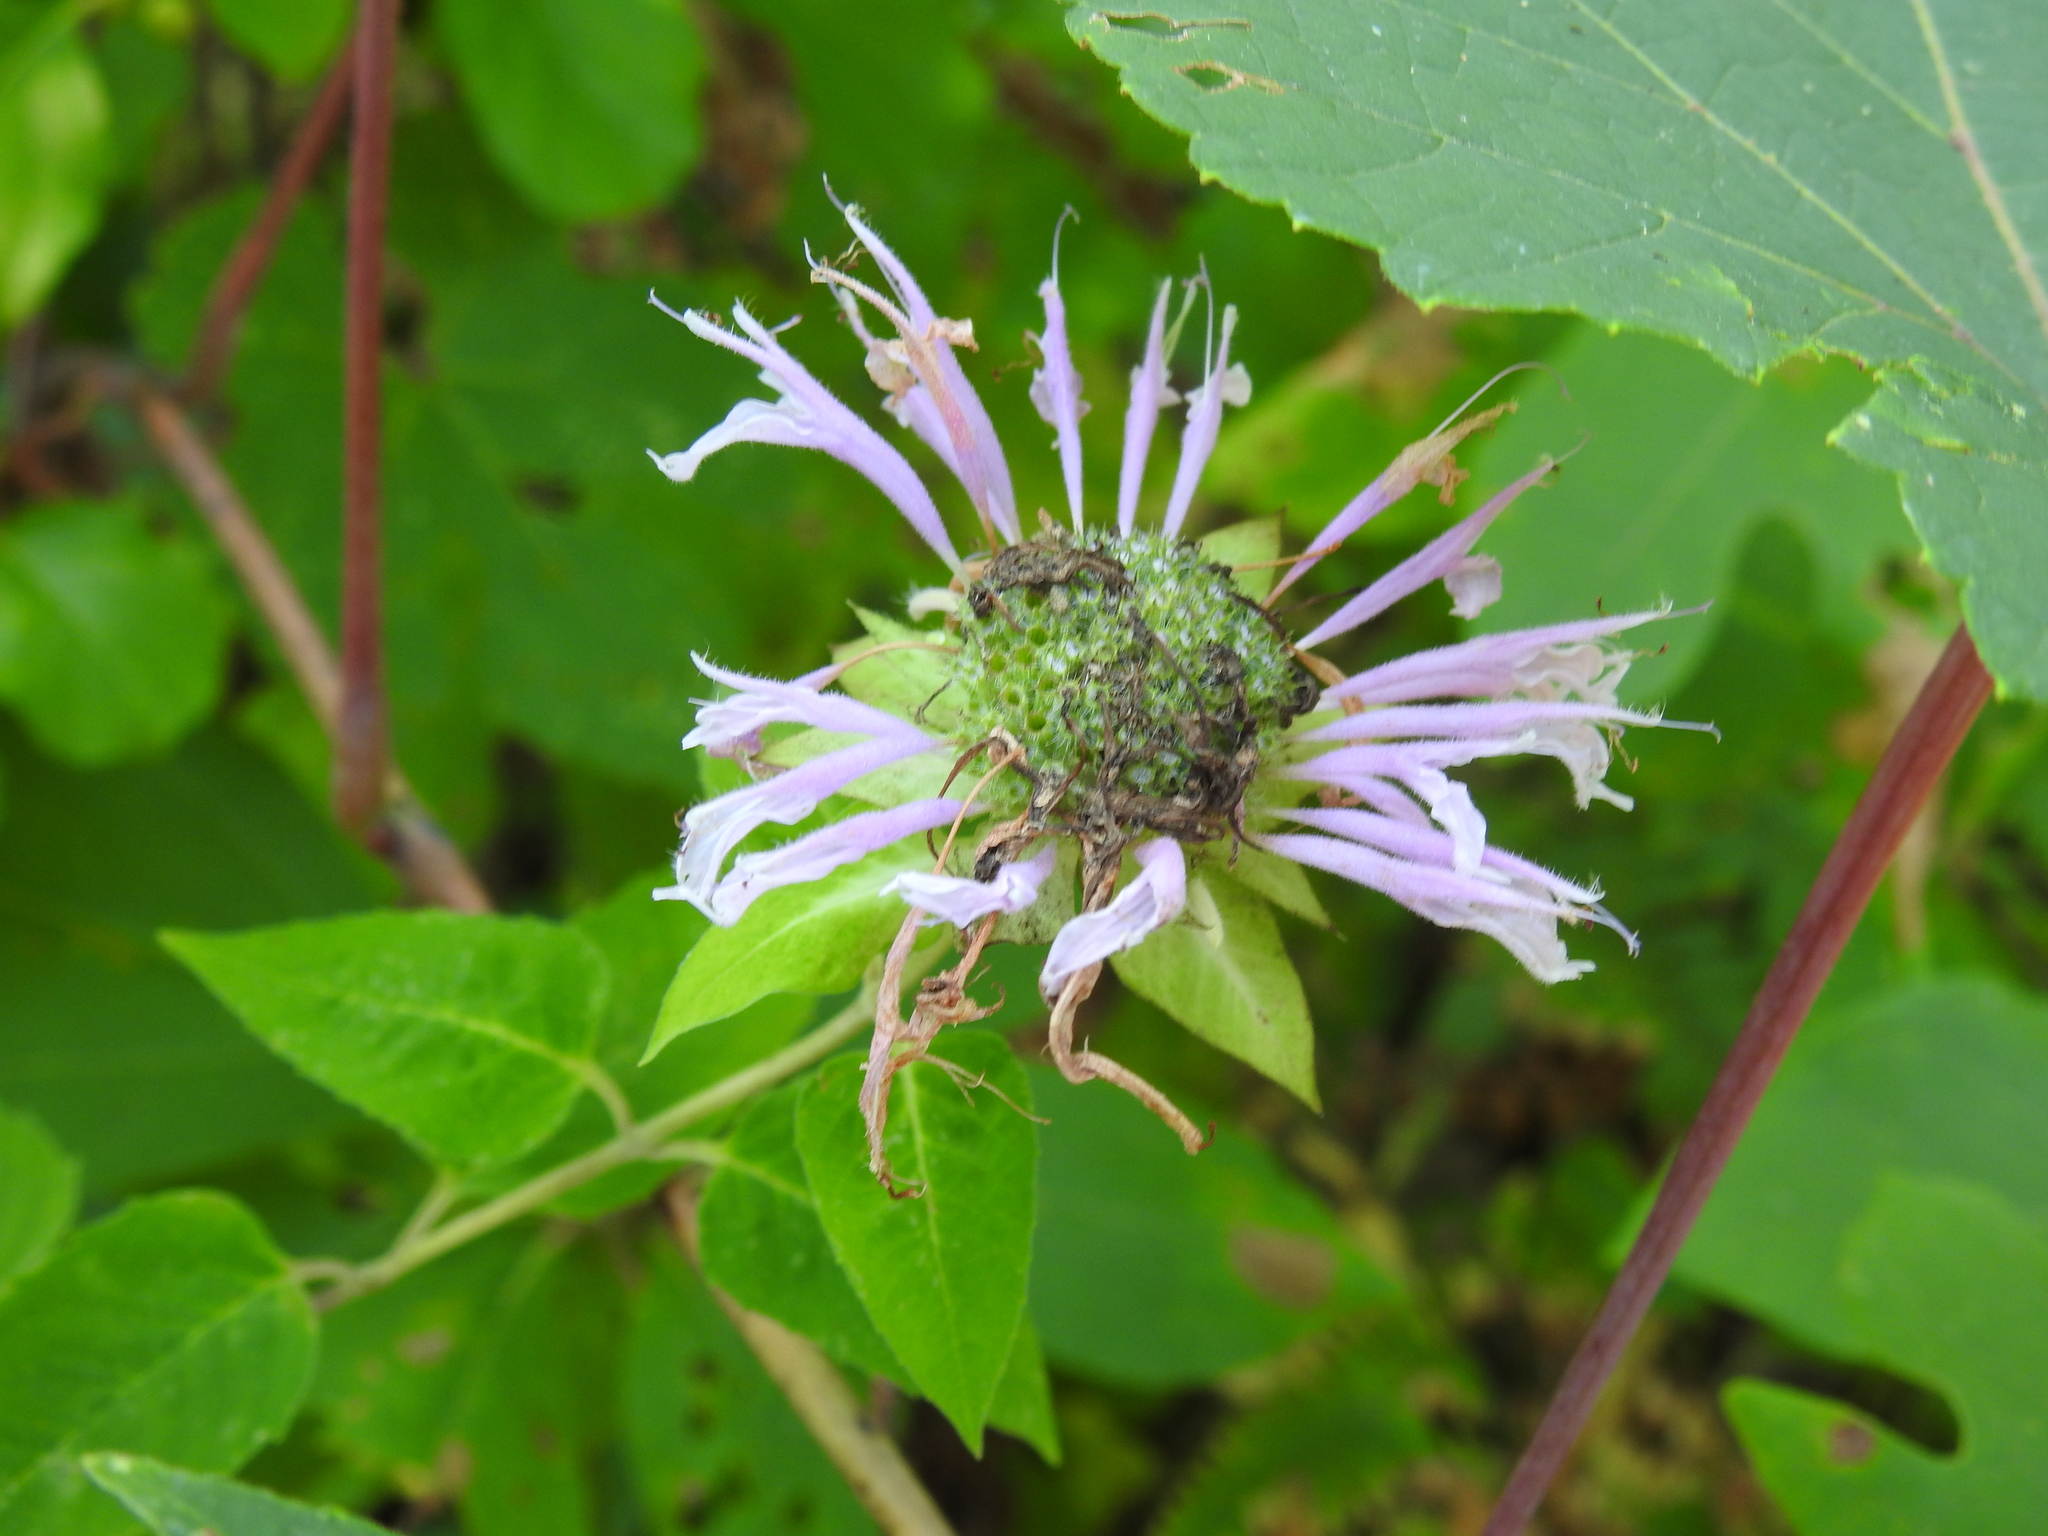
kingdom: Plantae
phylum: Tracheophyta
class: Magnoliopsida
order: Lamiales
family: Lamiaceae
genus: Monarda
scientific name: Monarda fistulosa
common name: Purple beebalm
